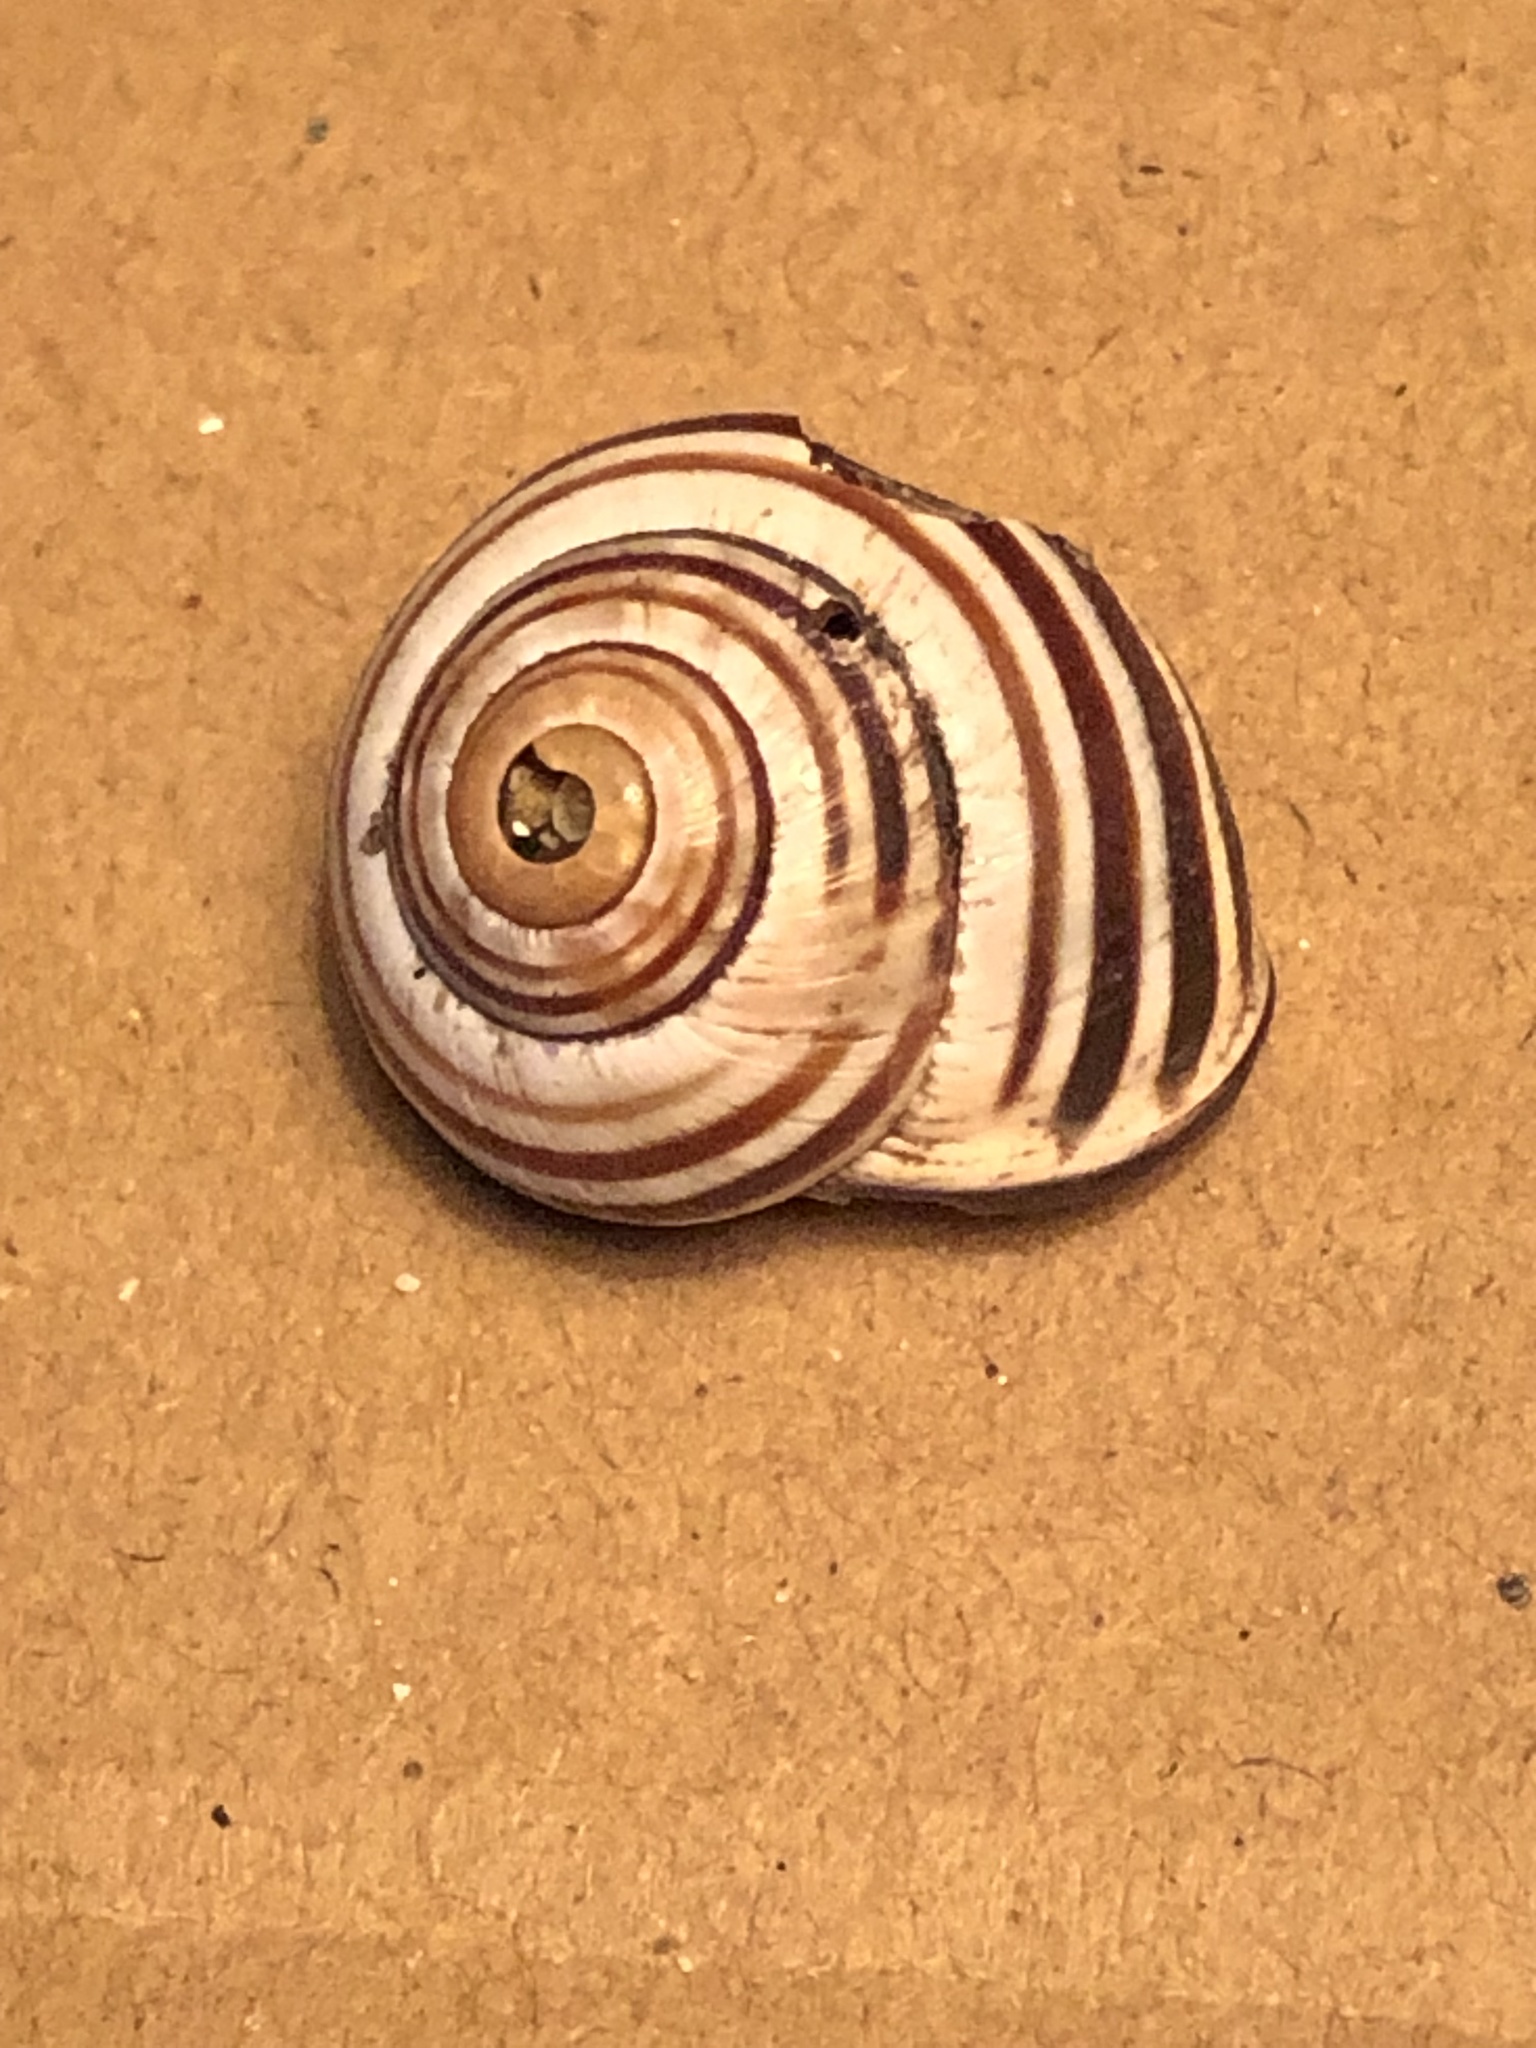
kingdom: Animalia
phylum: Mollusca
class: Gastropoda
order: Stylommatophora
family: Helicidae
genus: Cepaea
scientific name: Cepaea nemoralis
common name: Grovesnail
